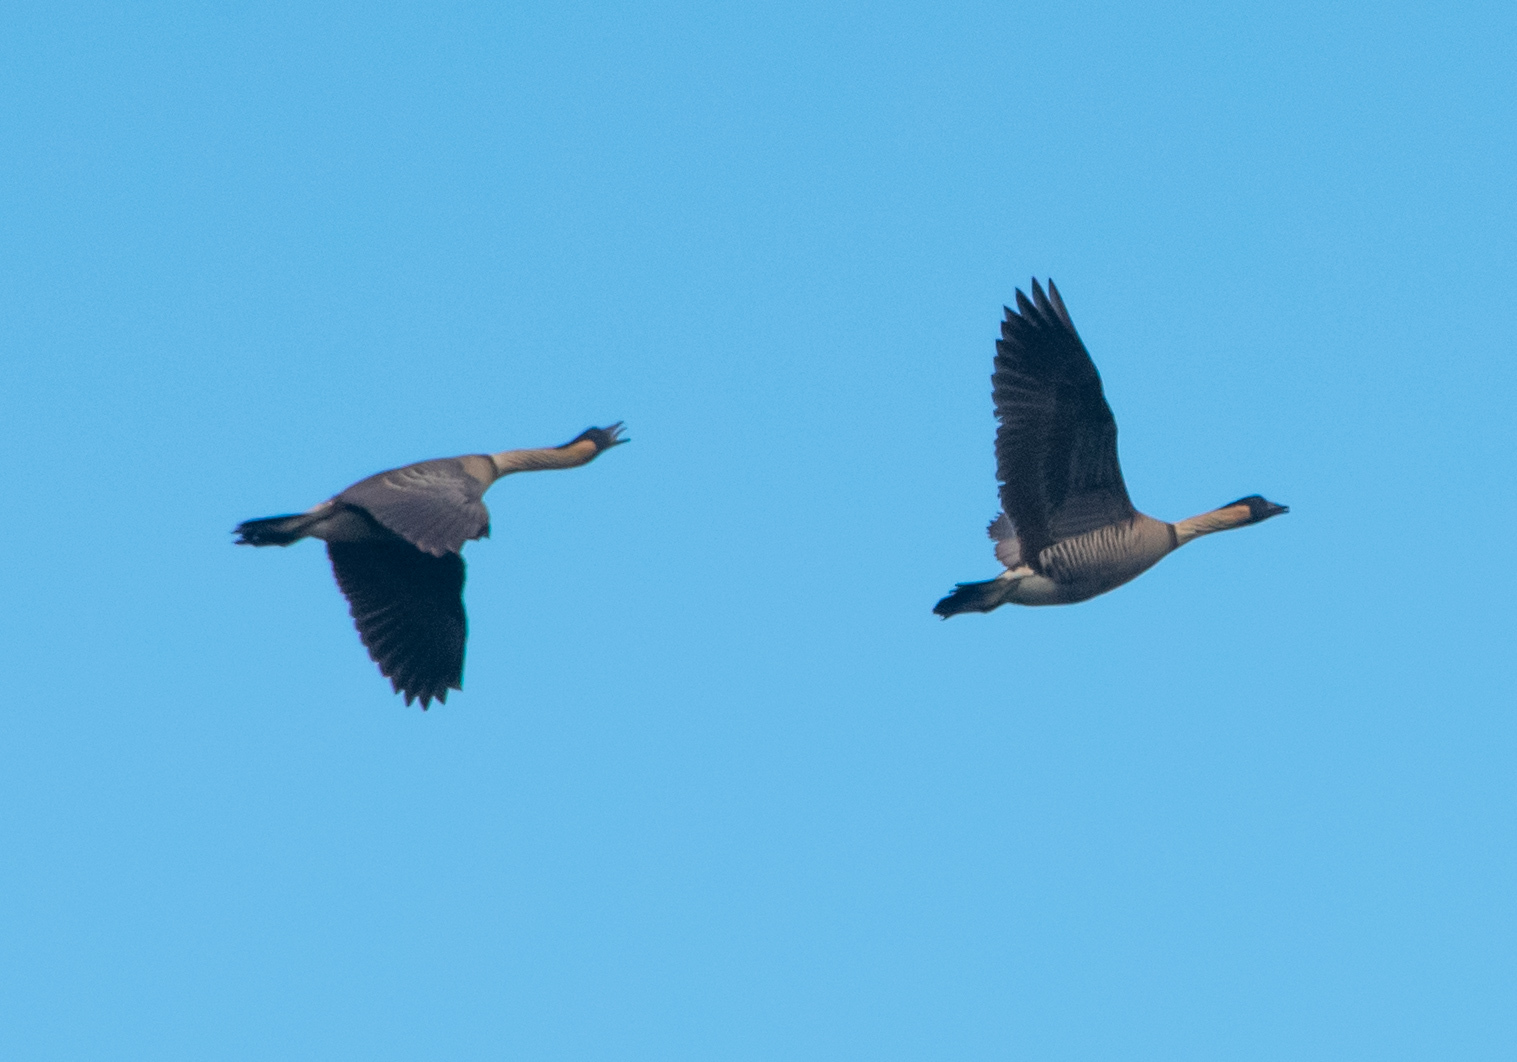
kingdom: Animalia
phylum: Chordata
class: Aves
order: Anseriformes
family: Anatidae
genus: Branta
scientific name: Branta sandvicensis
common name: Nene
